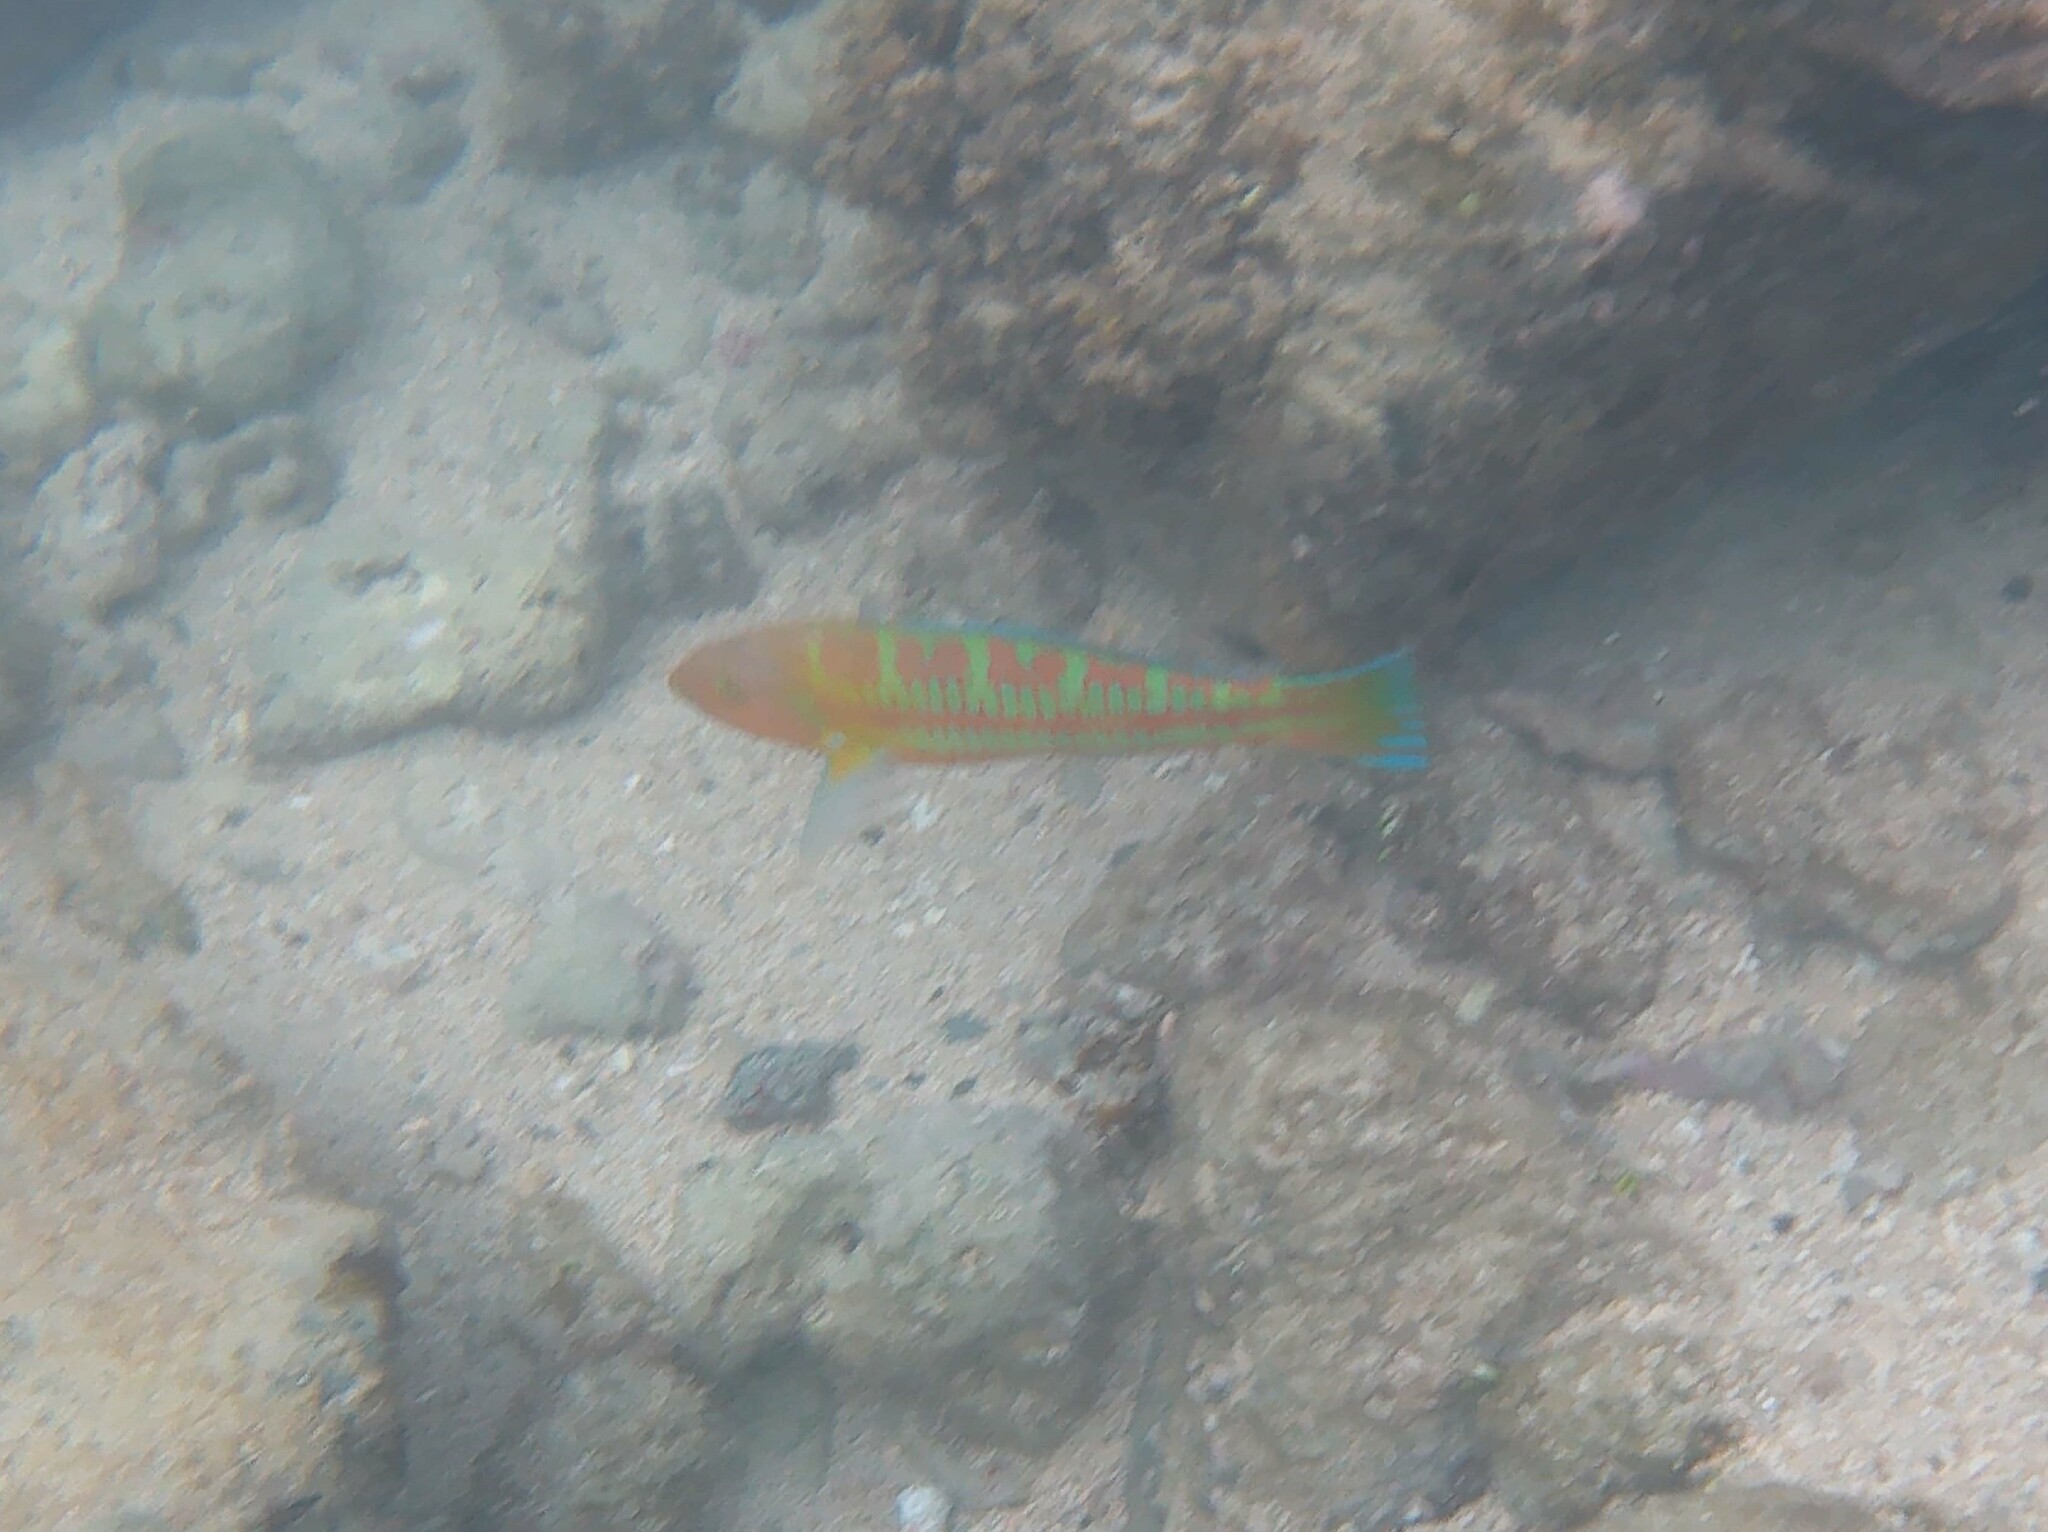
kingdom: Animalia
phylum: Chordata
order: Perciformes
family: Labridae
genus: Thalassoma
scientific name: Thalassoma trilobatum
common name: Christmas wrasse
